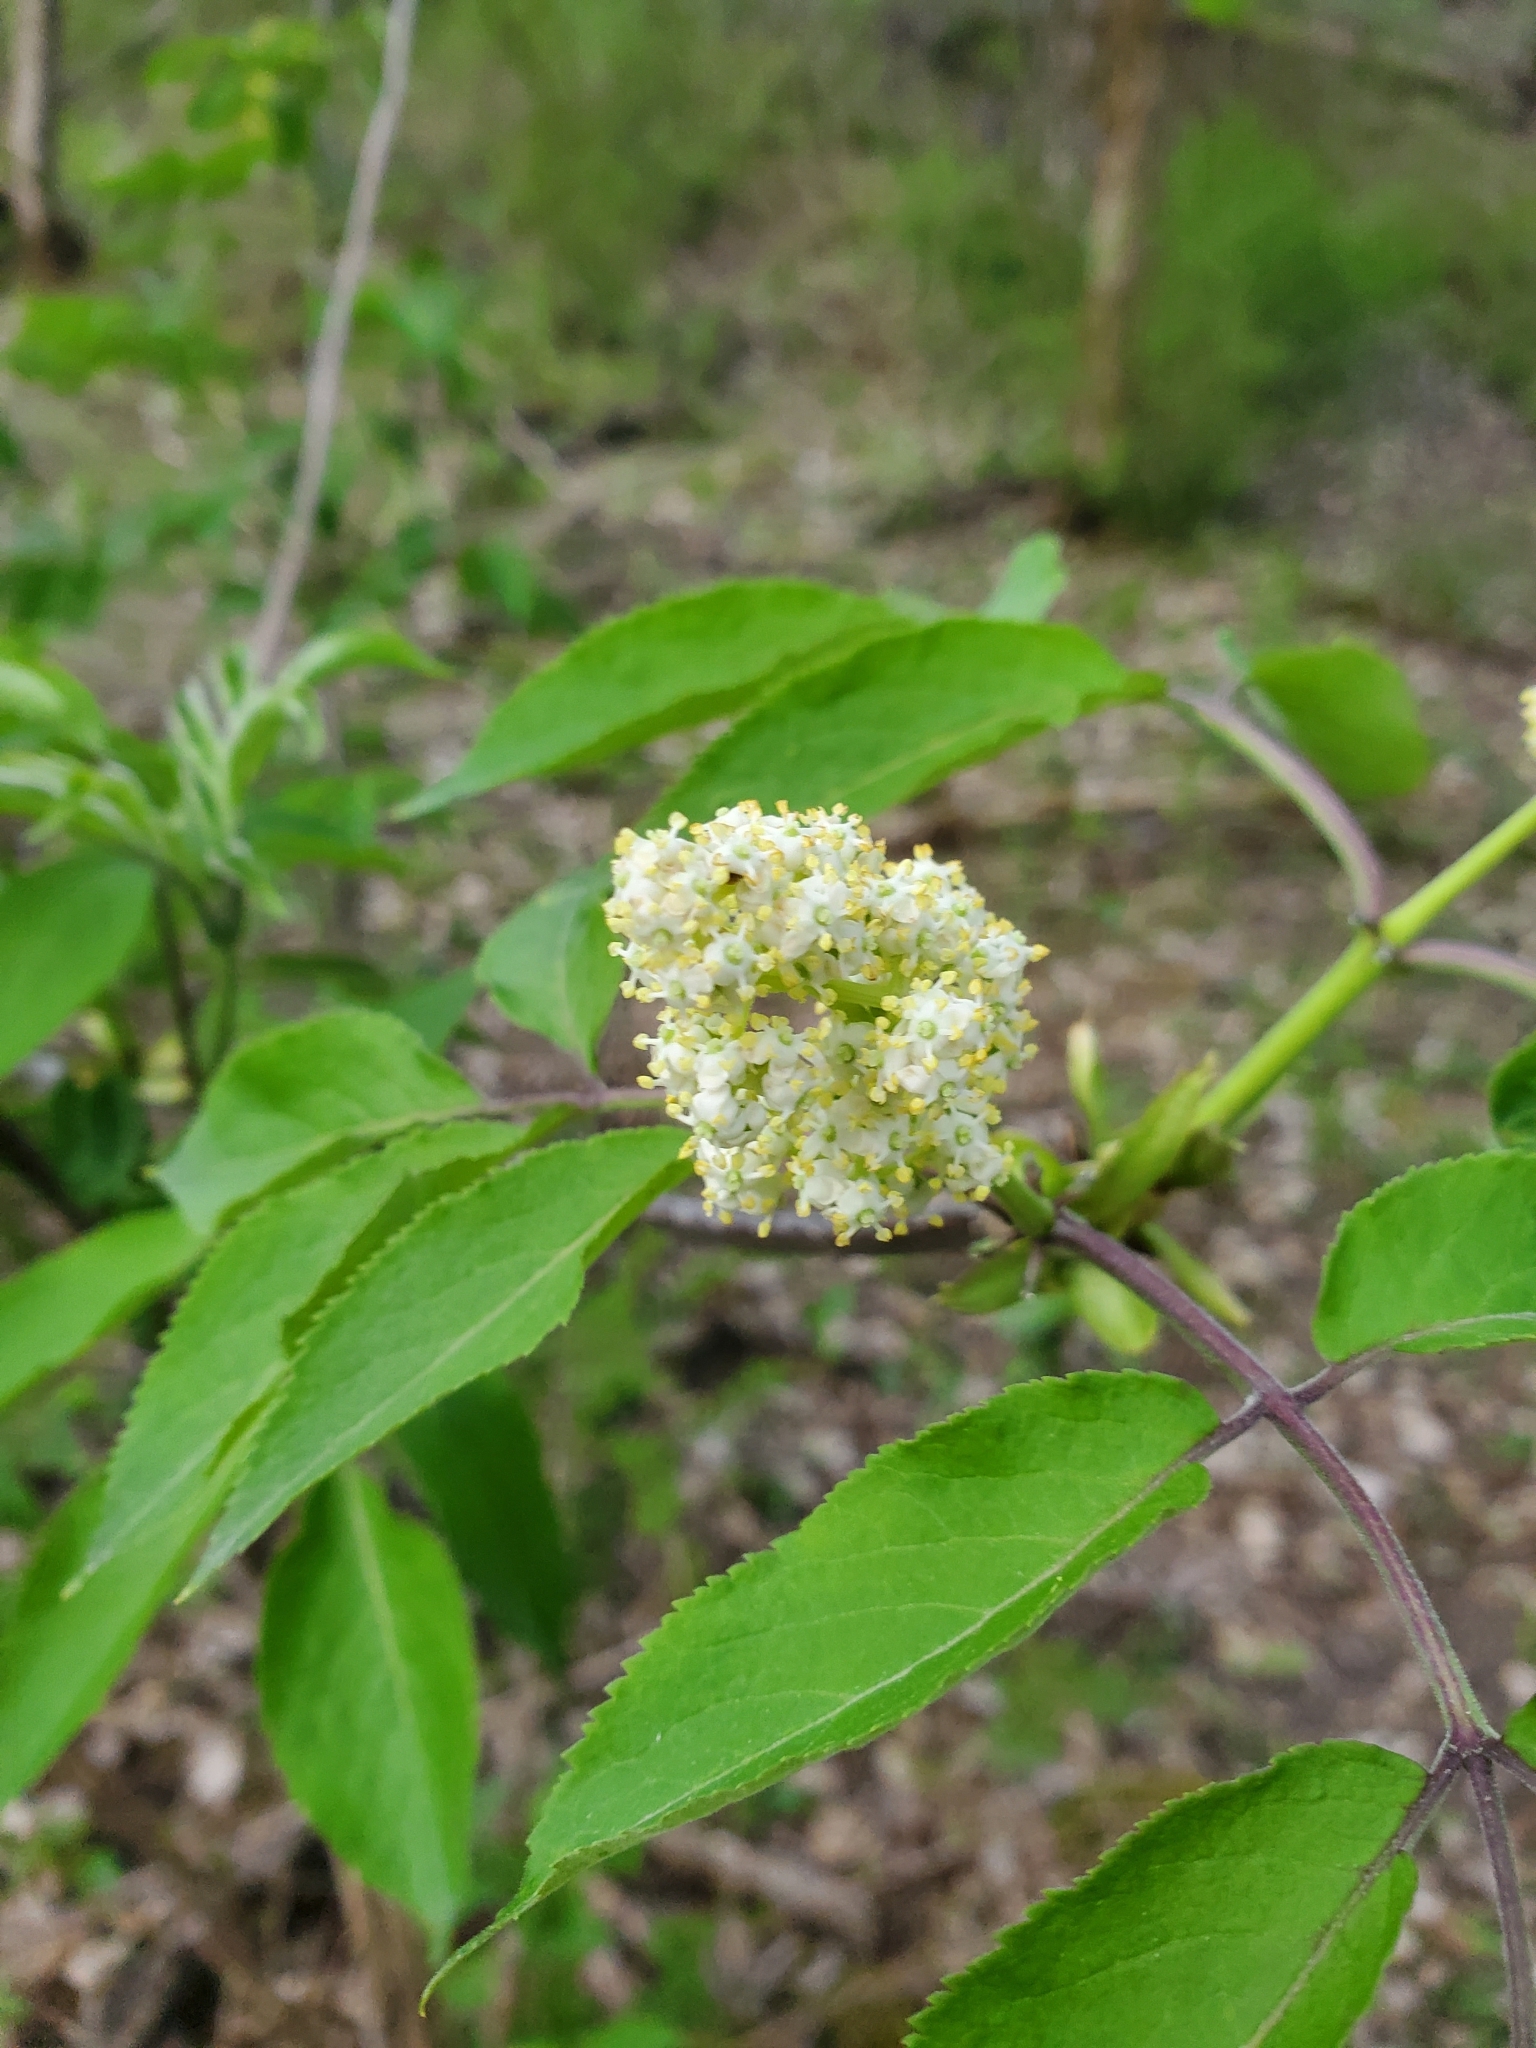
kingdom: Plantae
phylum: Tracheophyta
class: Magnoliopsida
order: Dipsacales
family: Viburnaceae
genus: Sambucus
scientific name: Sambucus racemosa
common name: Red-berried elder
